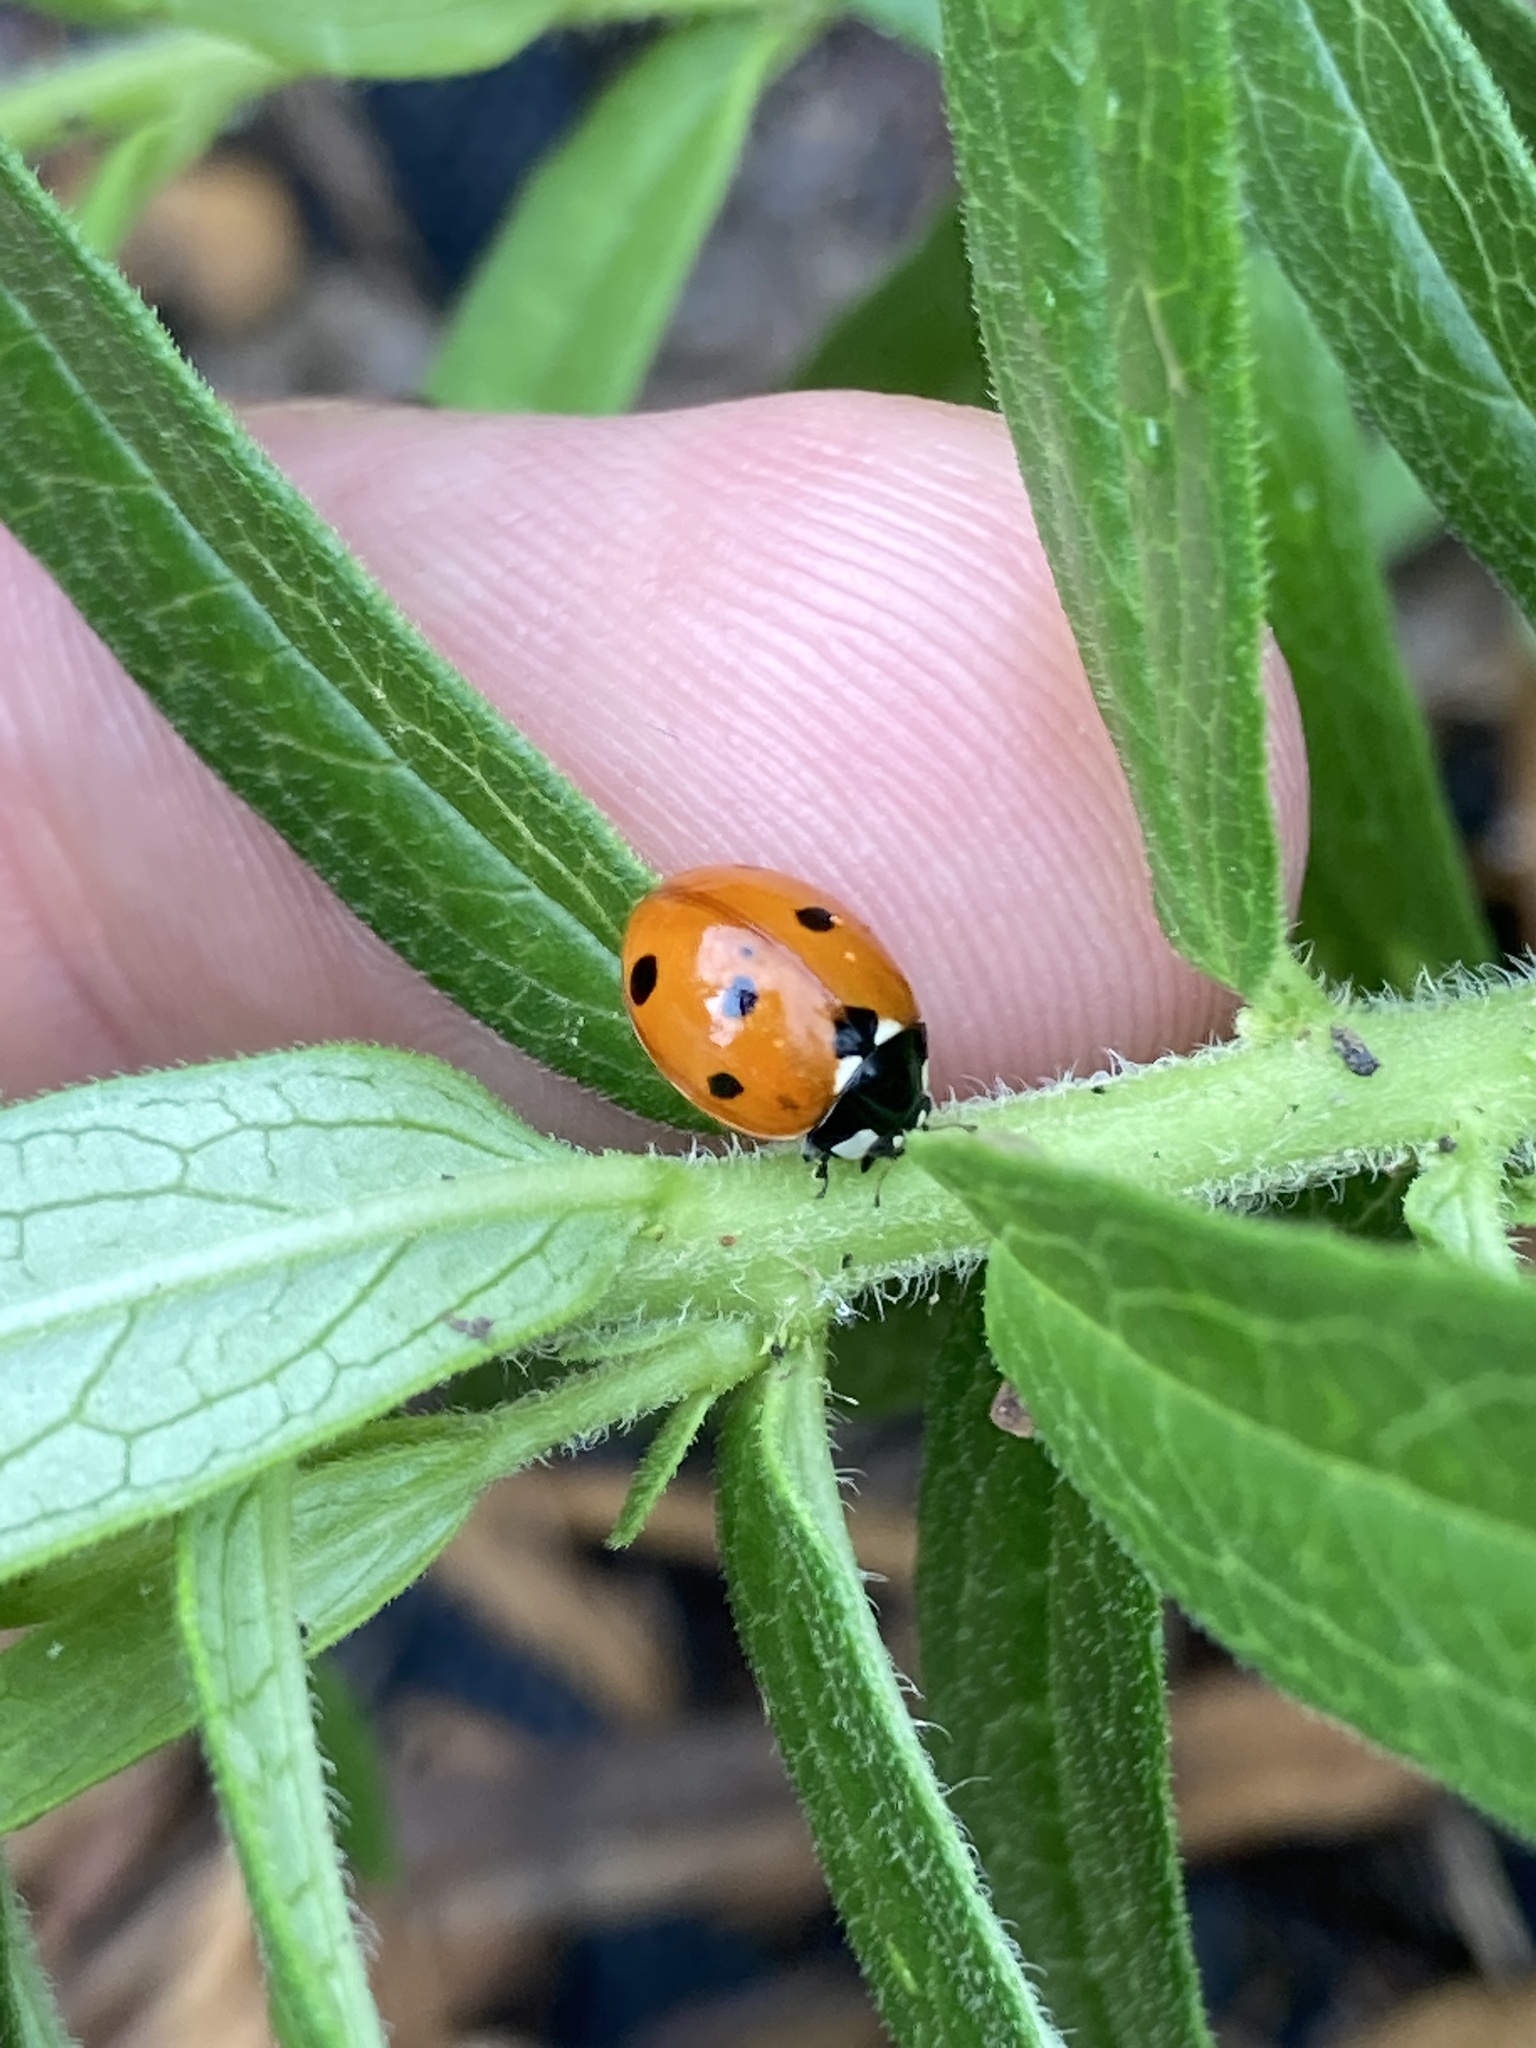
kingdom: Animalia
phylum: Arthropoda
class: Insecta
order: Coleoptera
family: Coccinellidae
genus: Coccinella
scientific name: Coccinella septempunctata
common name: Sevenspotted lady beetle
